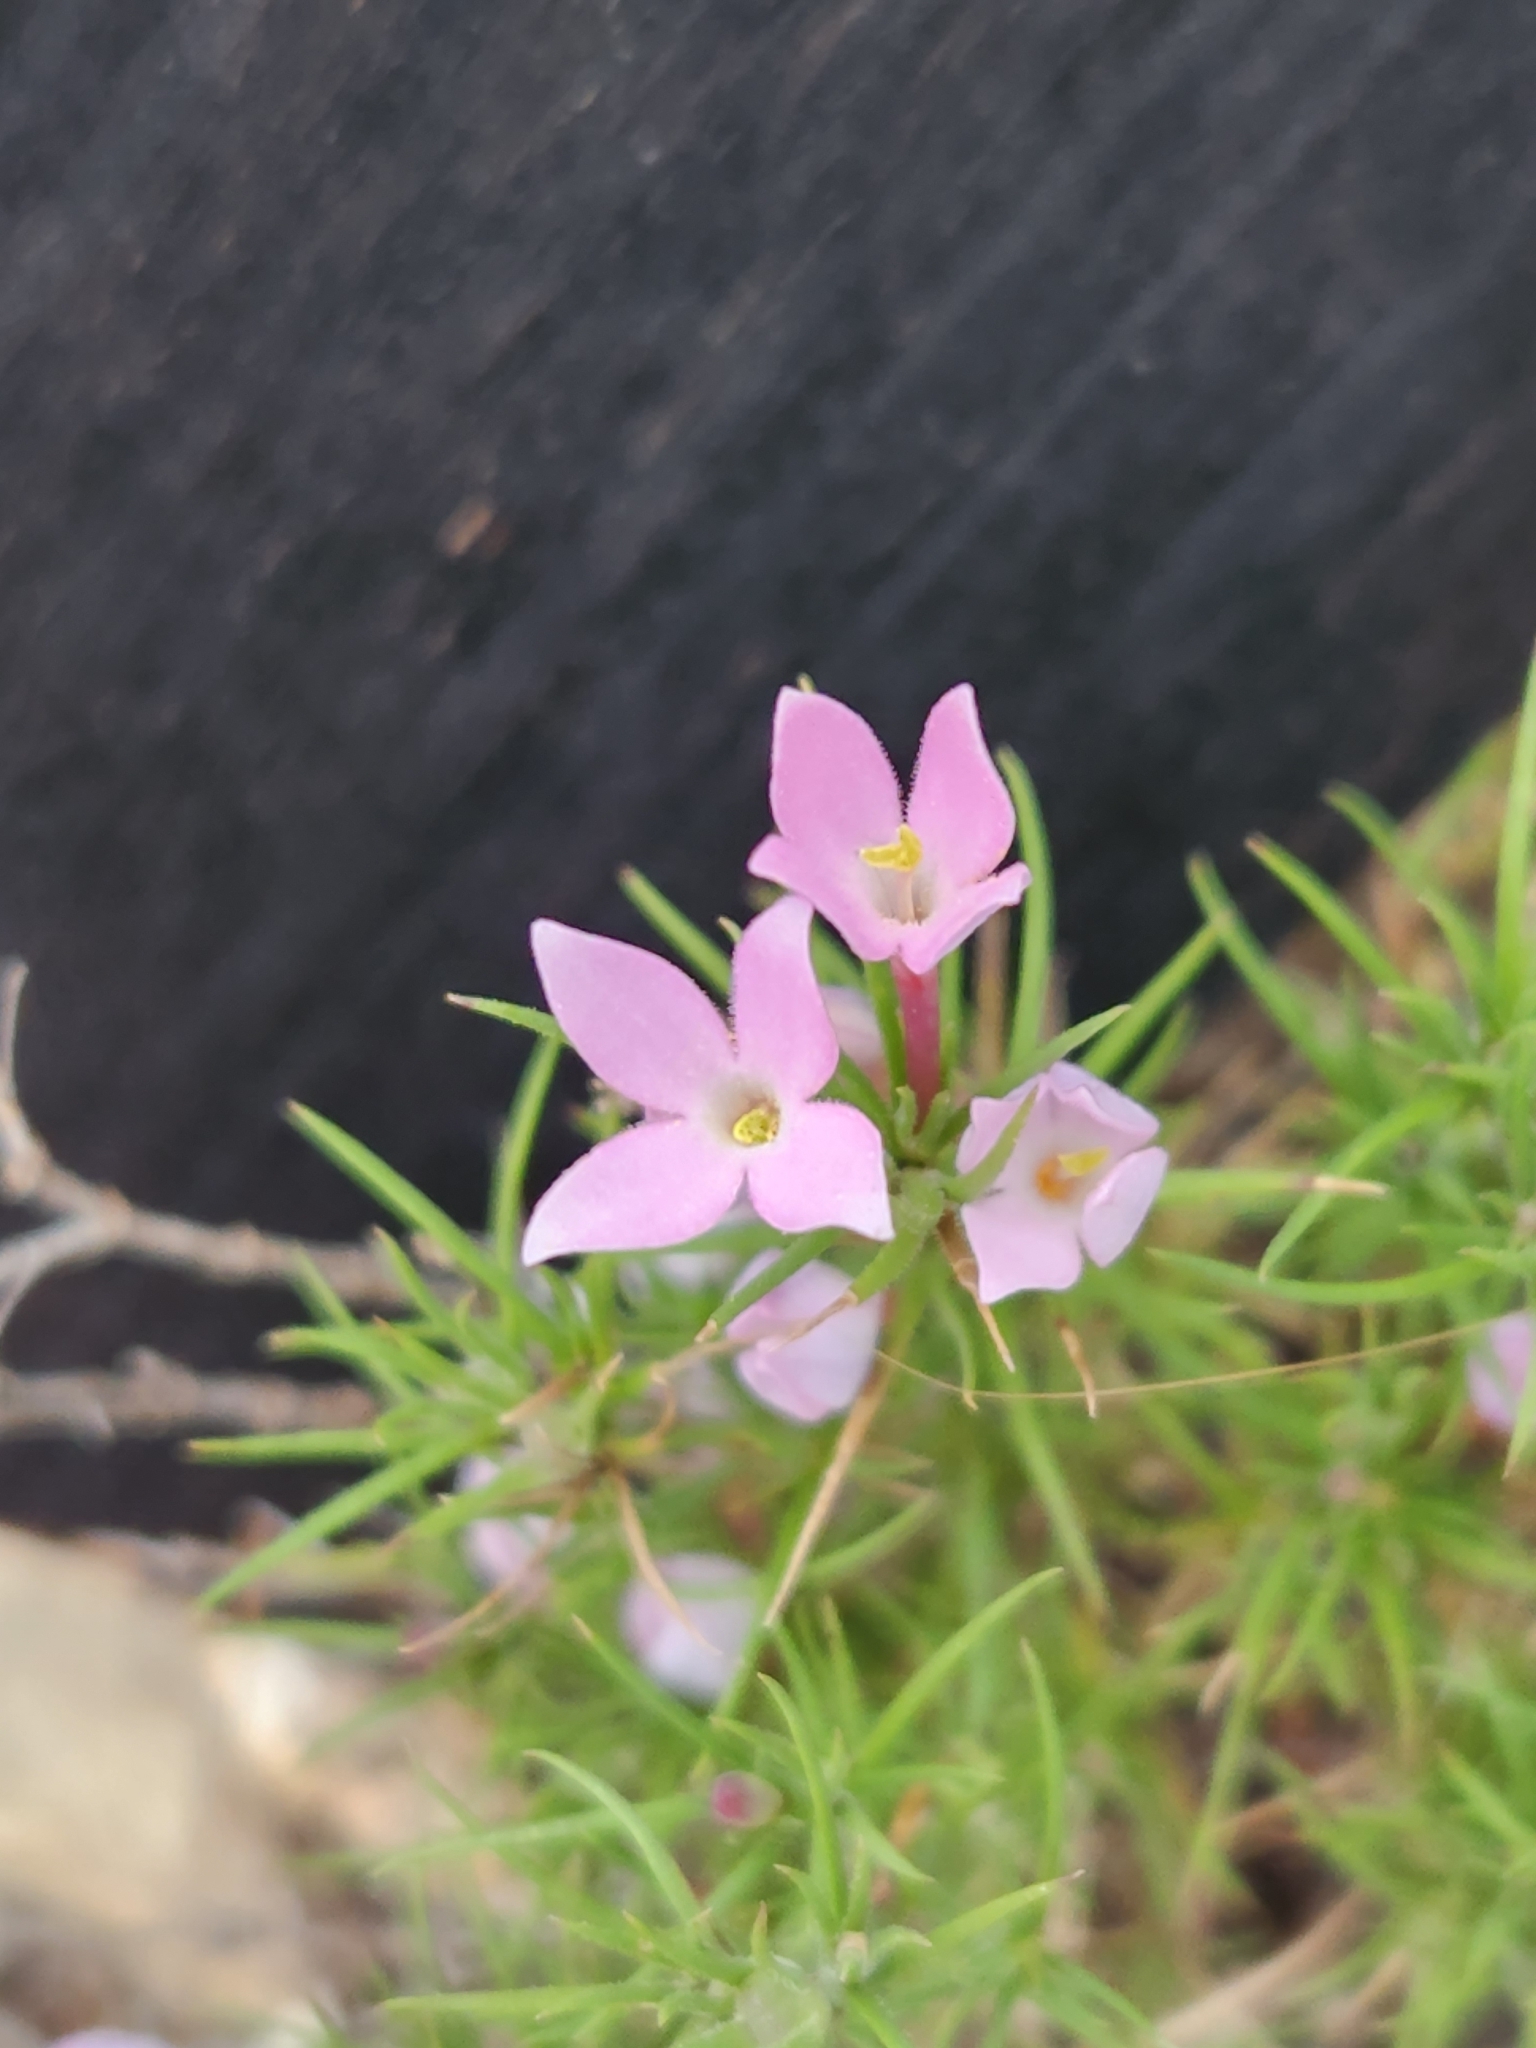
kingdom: Plantae
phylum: Tracheophyta
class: Magnoliopsida
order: Gentianales
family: Rubiaceae
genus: Houstonia
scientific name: Houstonia acerosa
